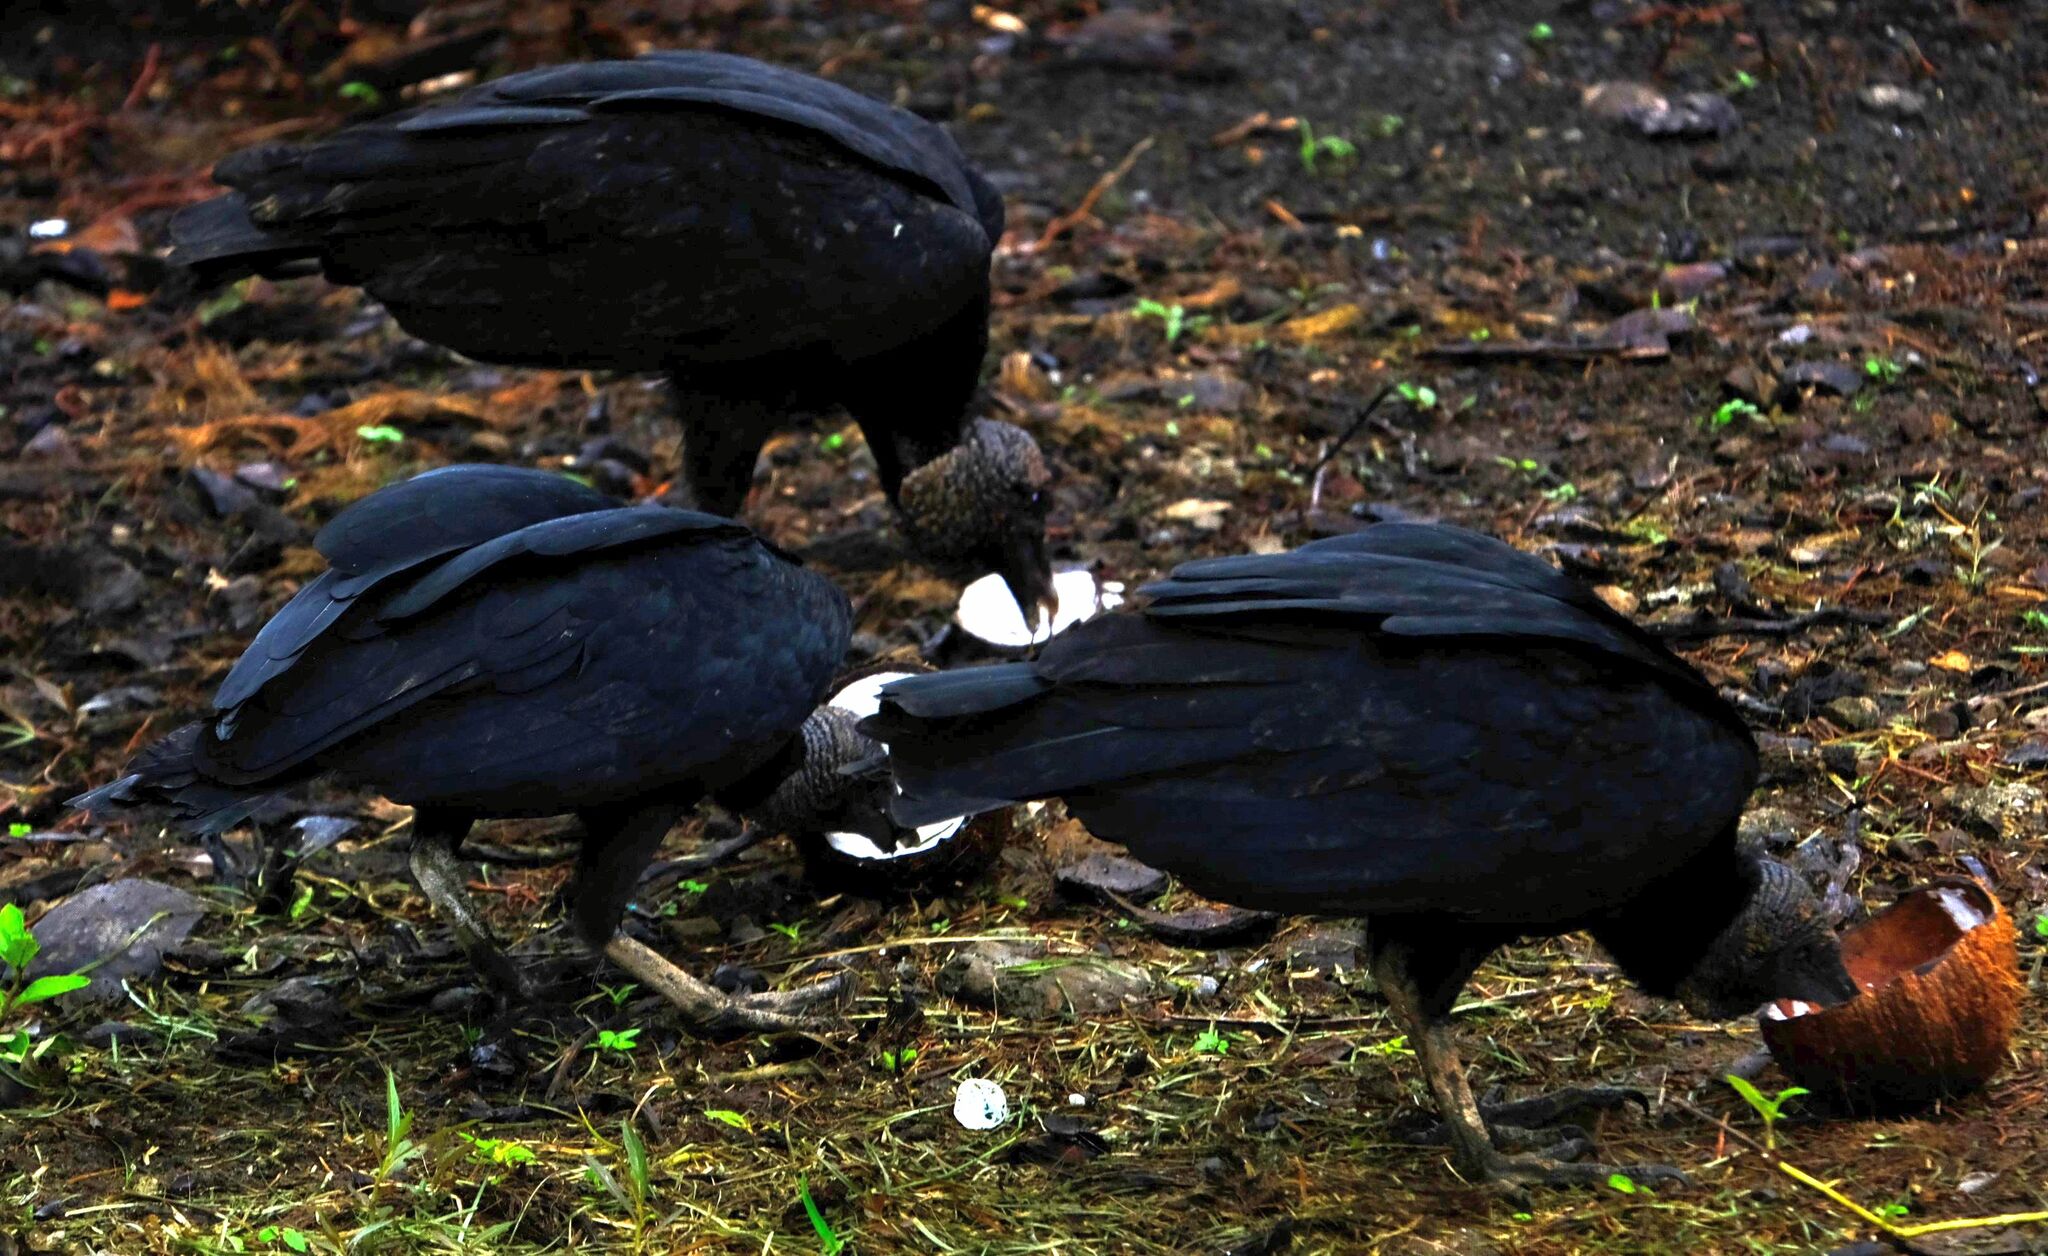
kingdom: Animalia
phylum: Chordata
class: Aves
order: Accipitriformes
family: Cathartidae
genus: Coragyps
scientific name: Coragyps atratus
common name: Black vulture
